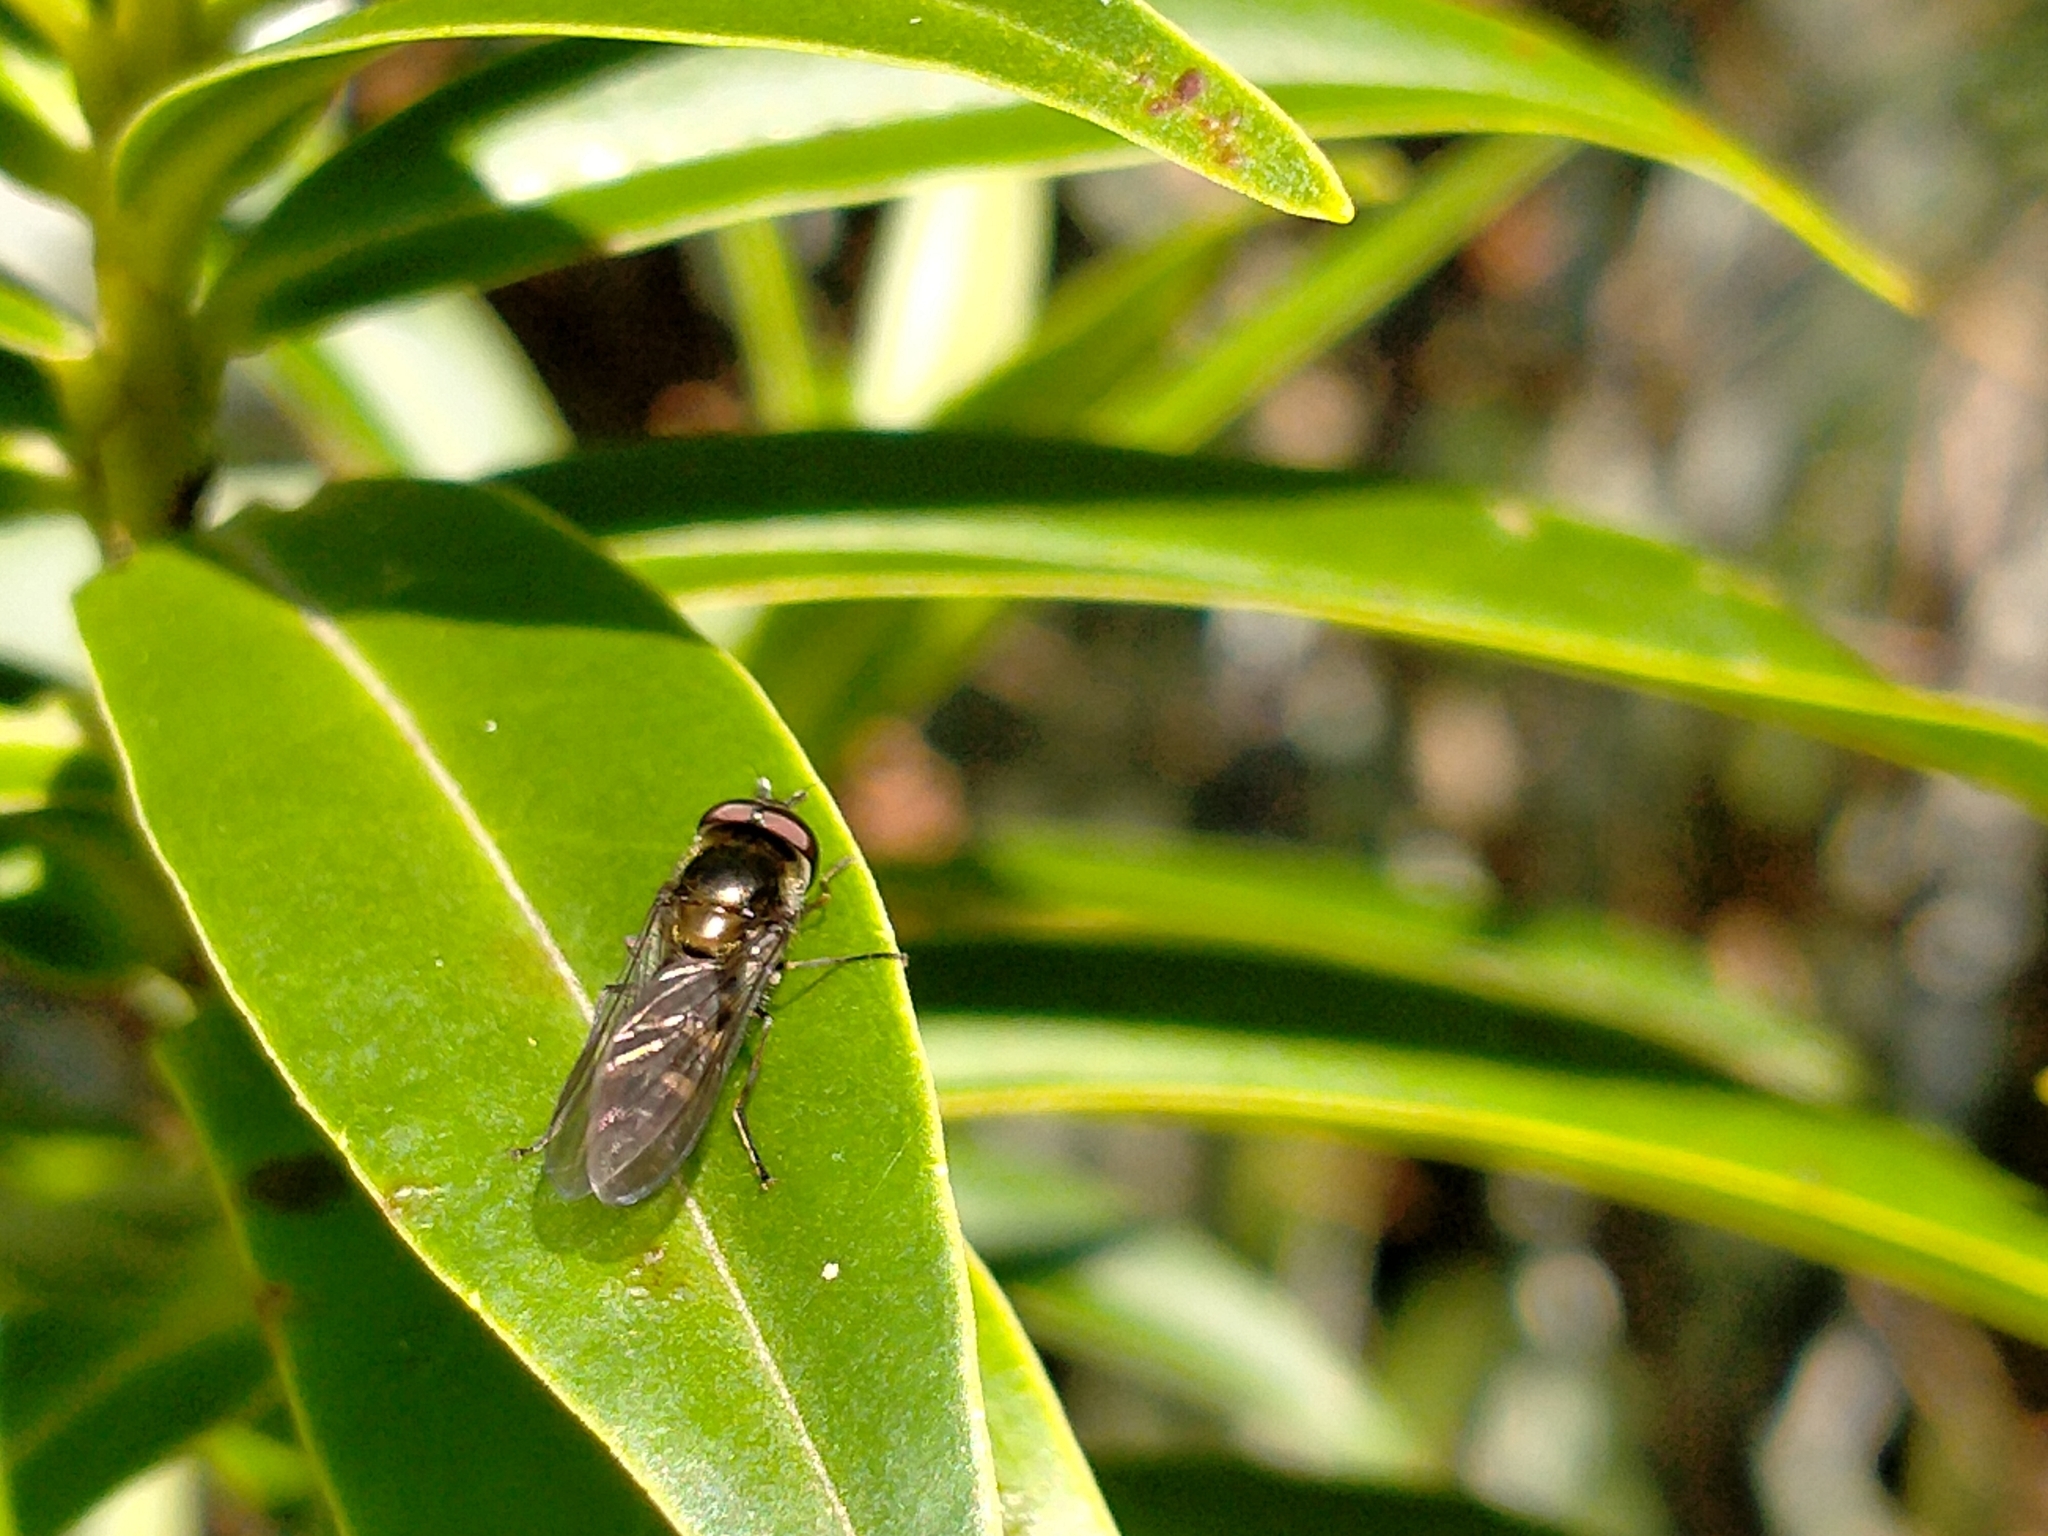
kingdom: Animalia
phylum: Arthropoda
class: Insecta
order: Diptera
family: Syrphidae
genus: Melangyna
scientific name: Melangyna novaezelandiae
